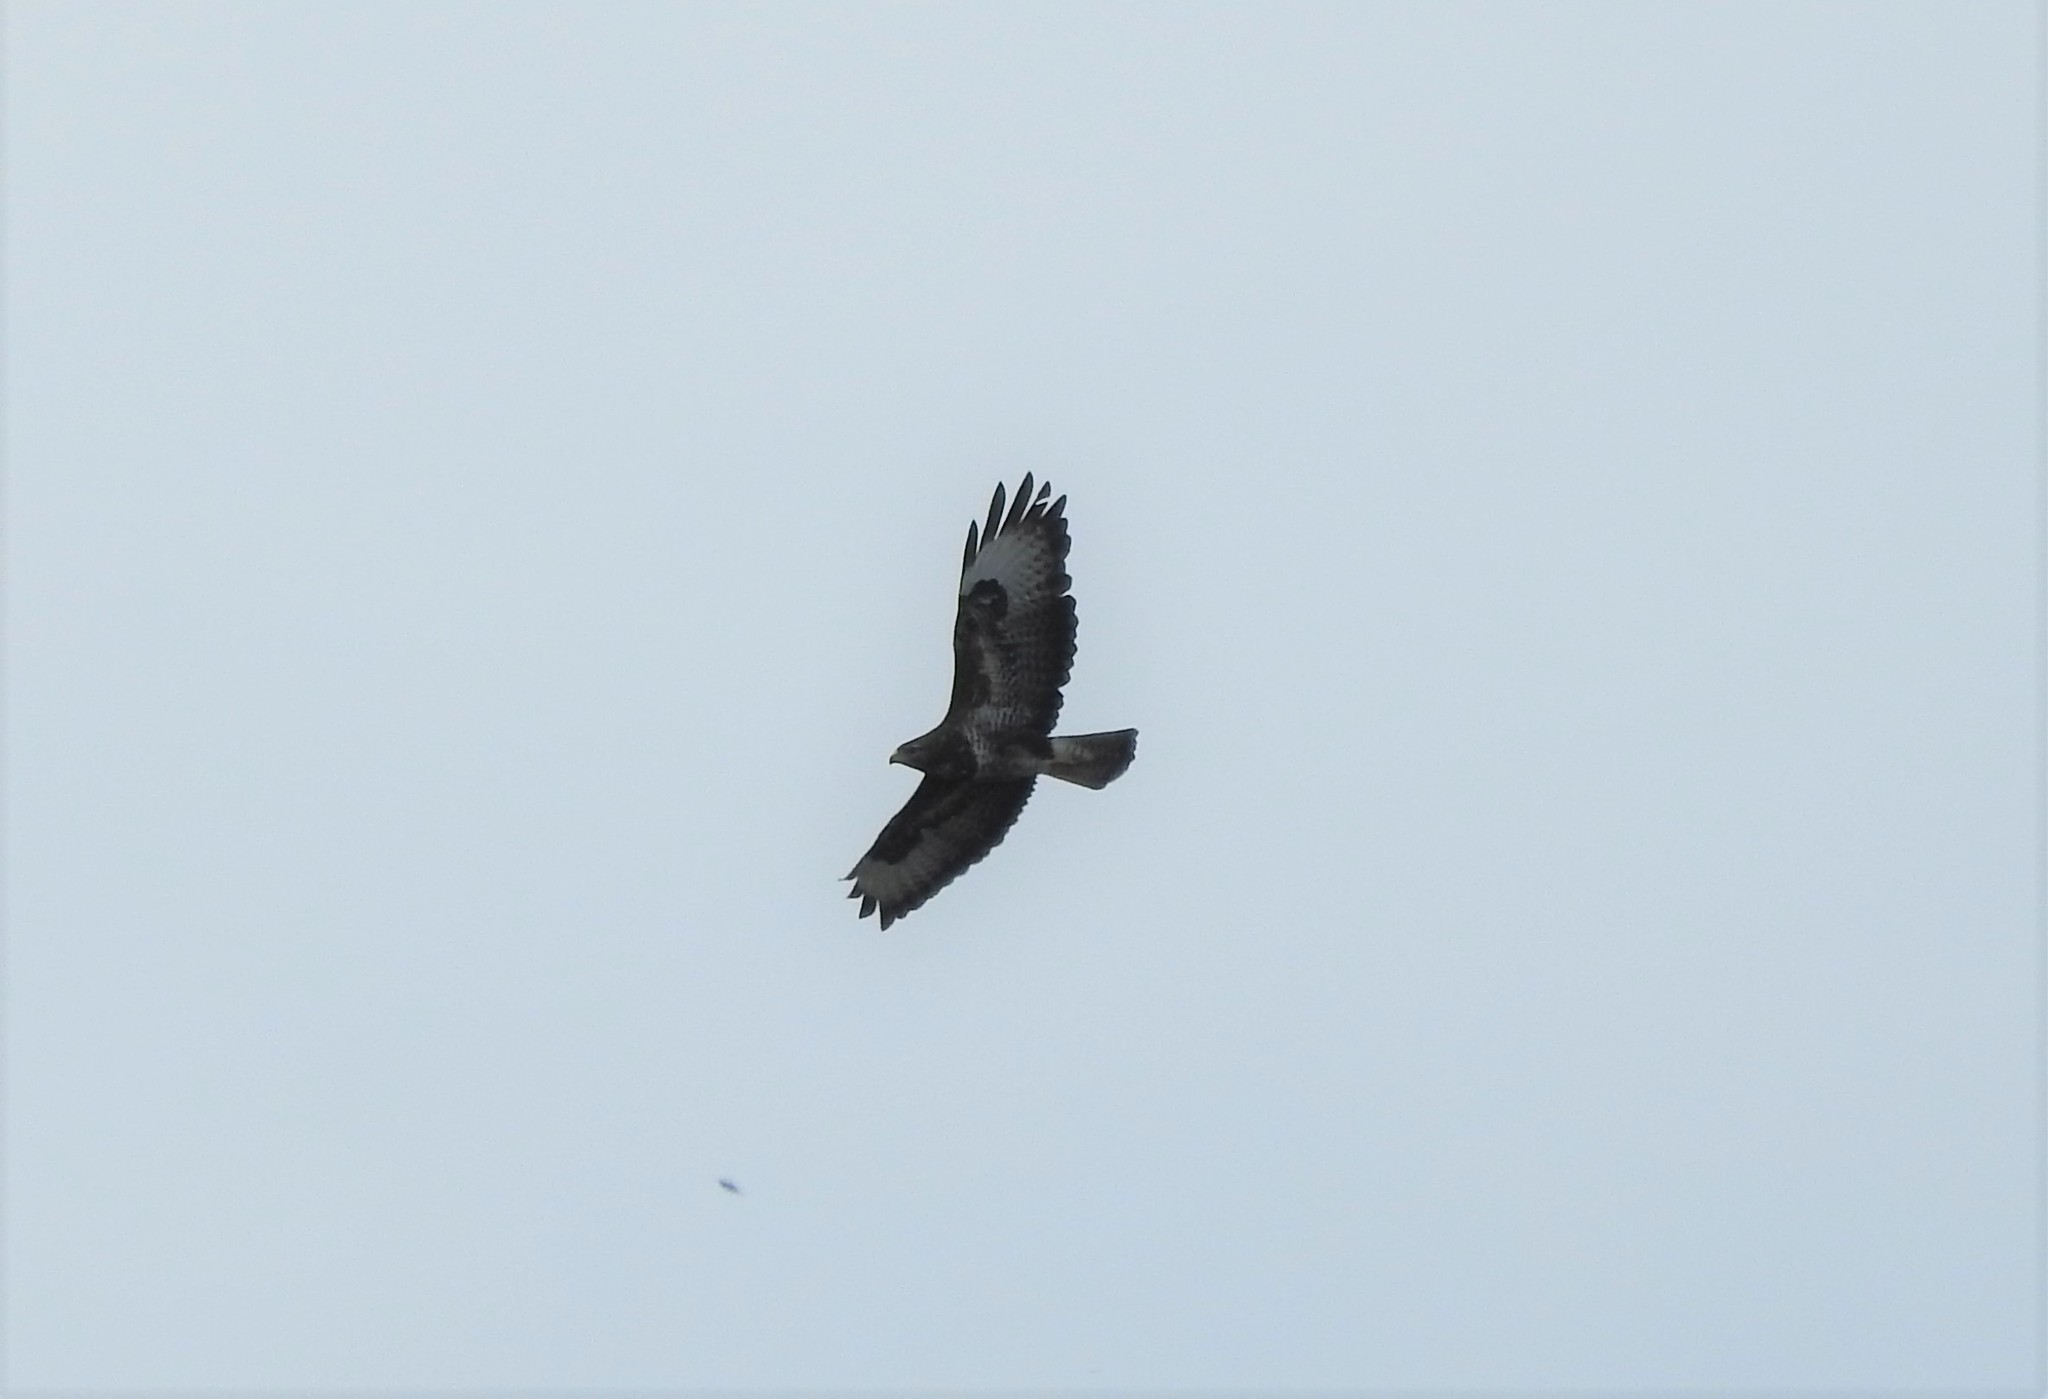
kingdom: Animalia
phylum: Chordata
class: Aves
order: Accipitriformes
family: Accipitridae
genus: Buteo
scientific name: Buteo buteo
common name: Common buzzard
